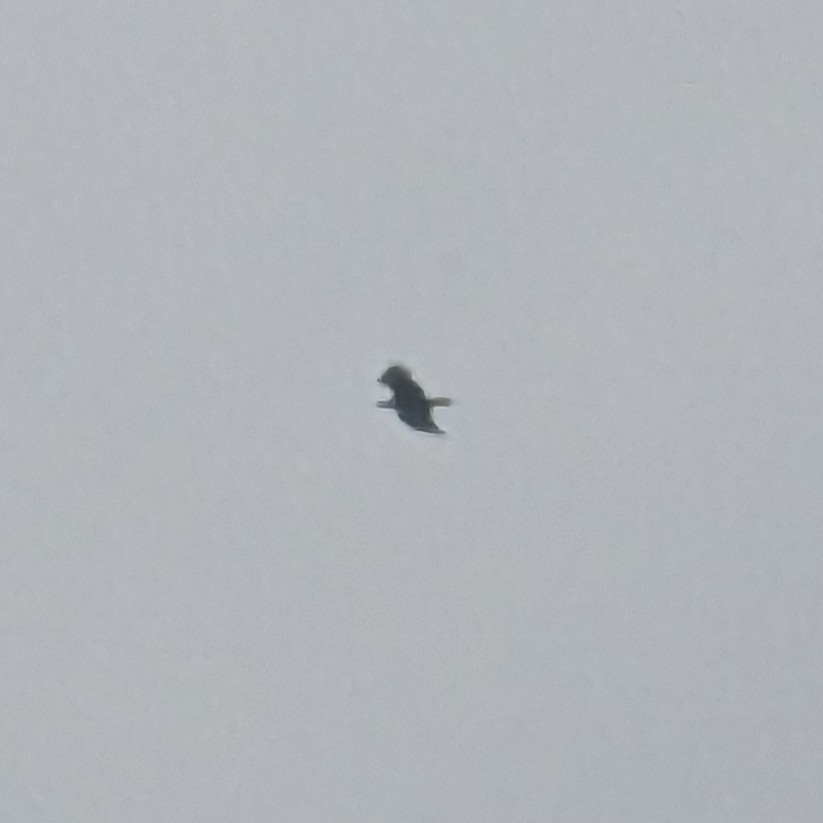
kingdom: Animalia
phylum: Chordata
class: Aves
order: Accipitriformes
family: Accipitridae
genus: Haliaeetus
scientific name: Haliaeetus leucocephalus
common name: Bald eagle
